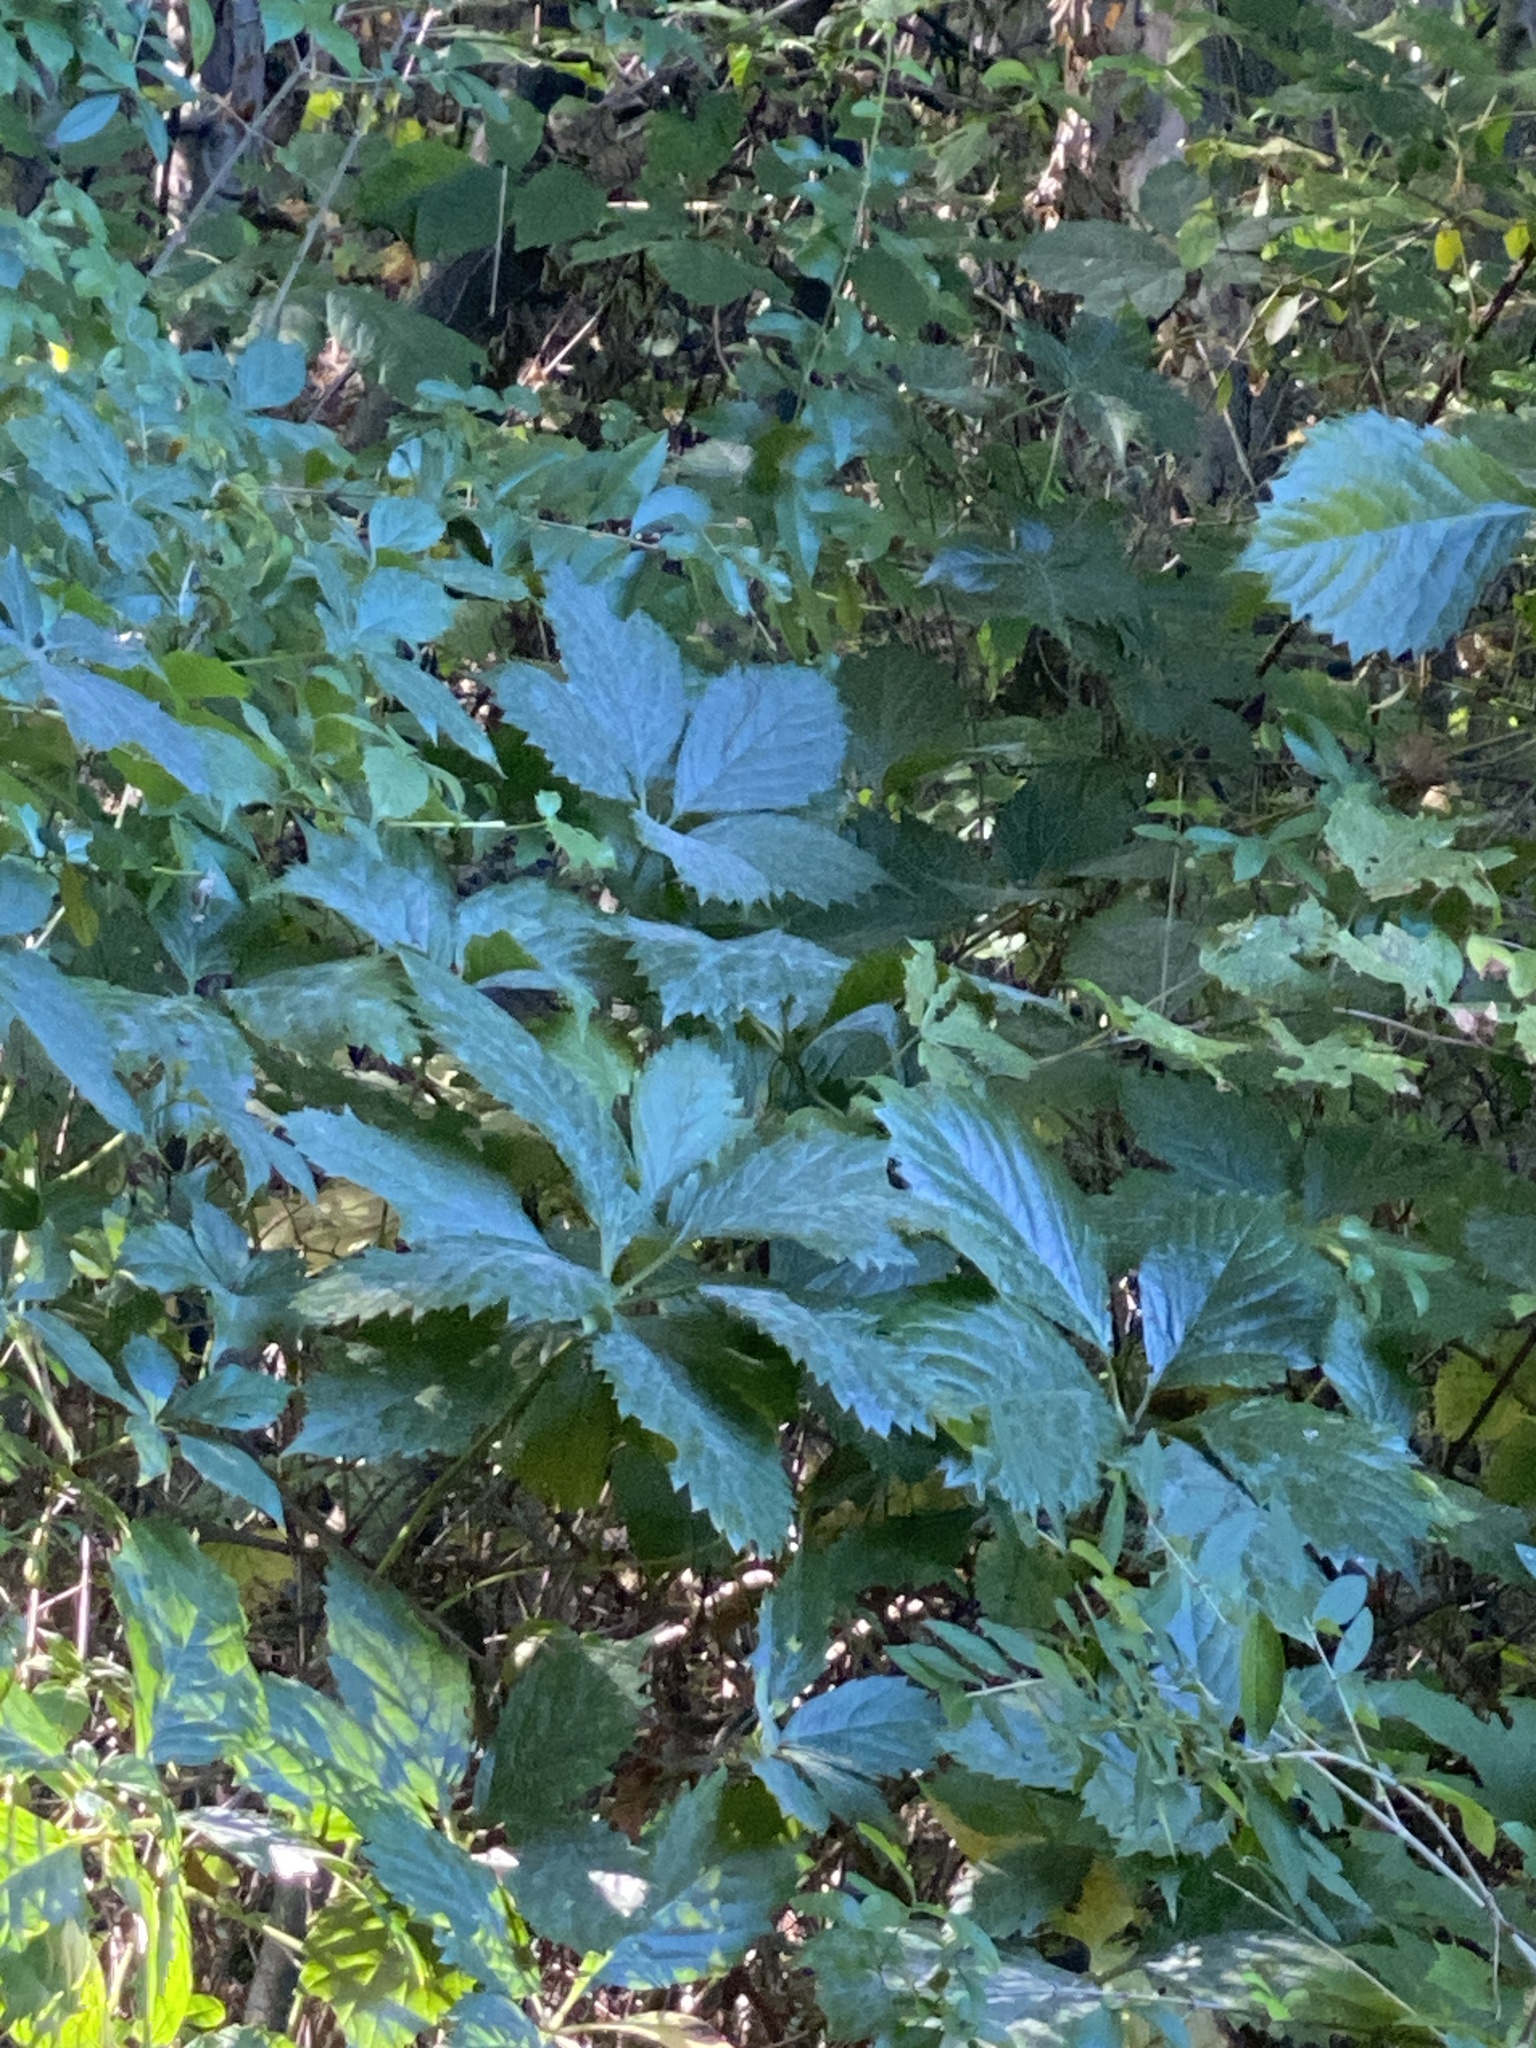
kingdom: Plantae
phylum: Tracheophyta
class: Magnoliopsida
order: Vitales
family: Vitaceae
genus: Parthenocissus
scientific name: Parthenocissus inserta
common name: False virginia-creeper
